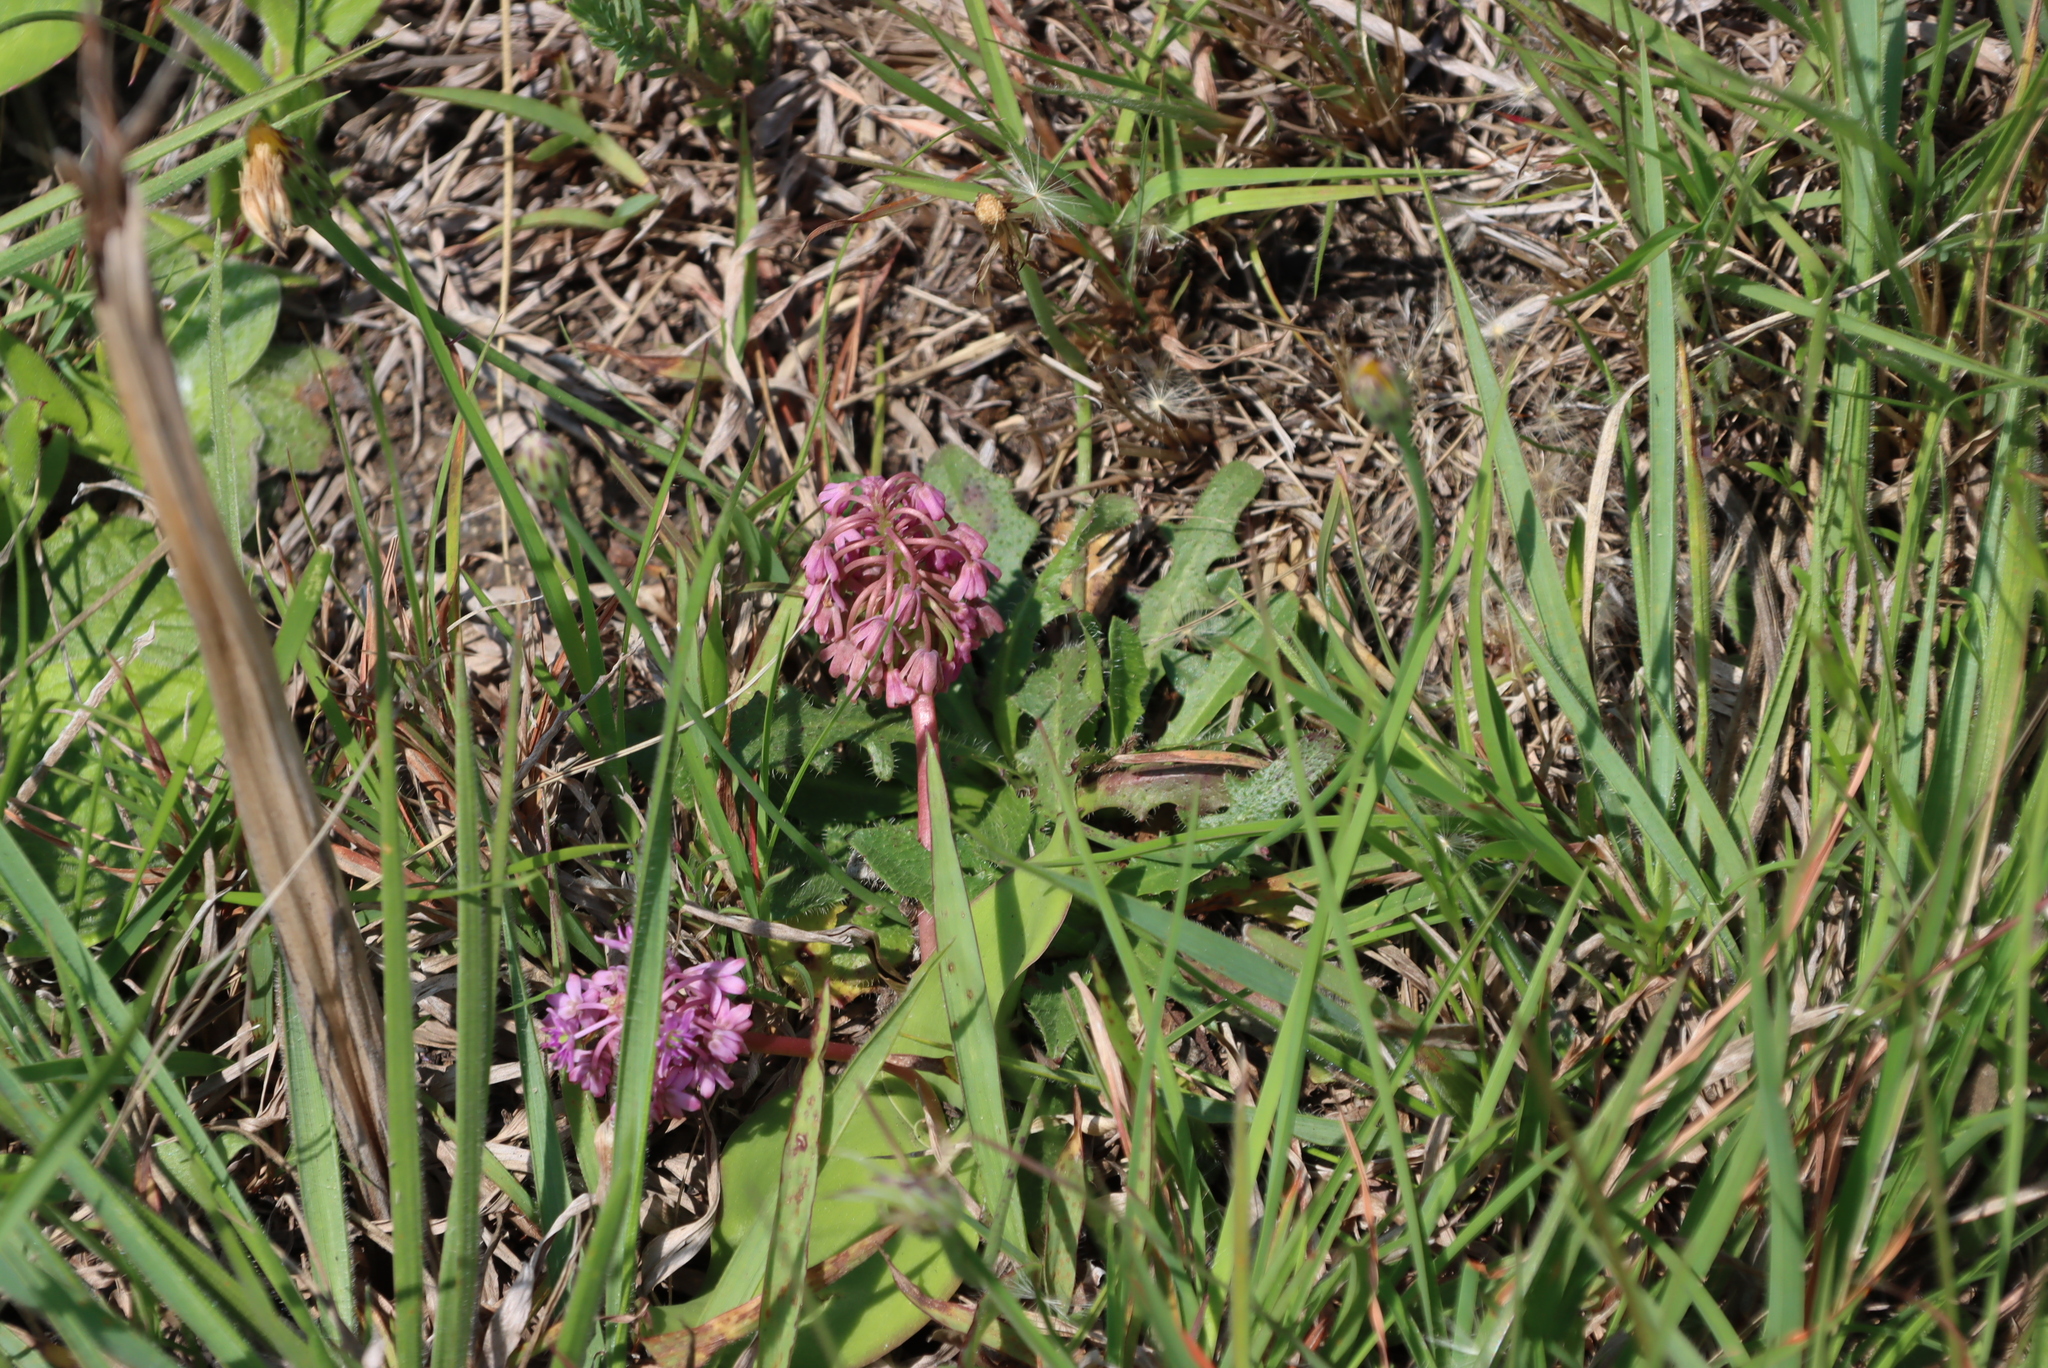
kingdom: Plantae
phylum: Tracheophyta
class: Liliopsida
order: Asparagales
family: Asparagaceae
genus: Ledebouria
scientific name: Ledebouria cooperi
